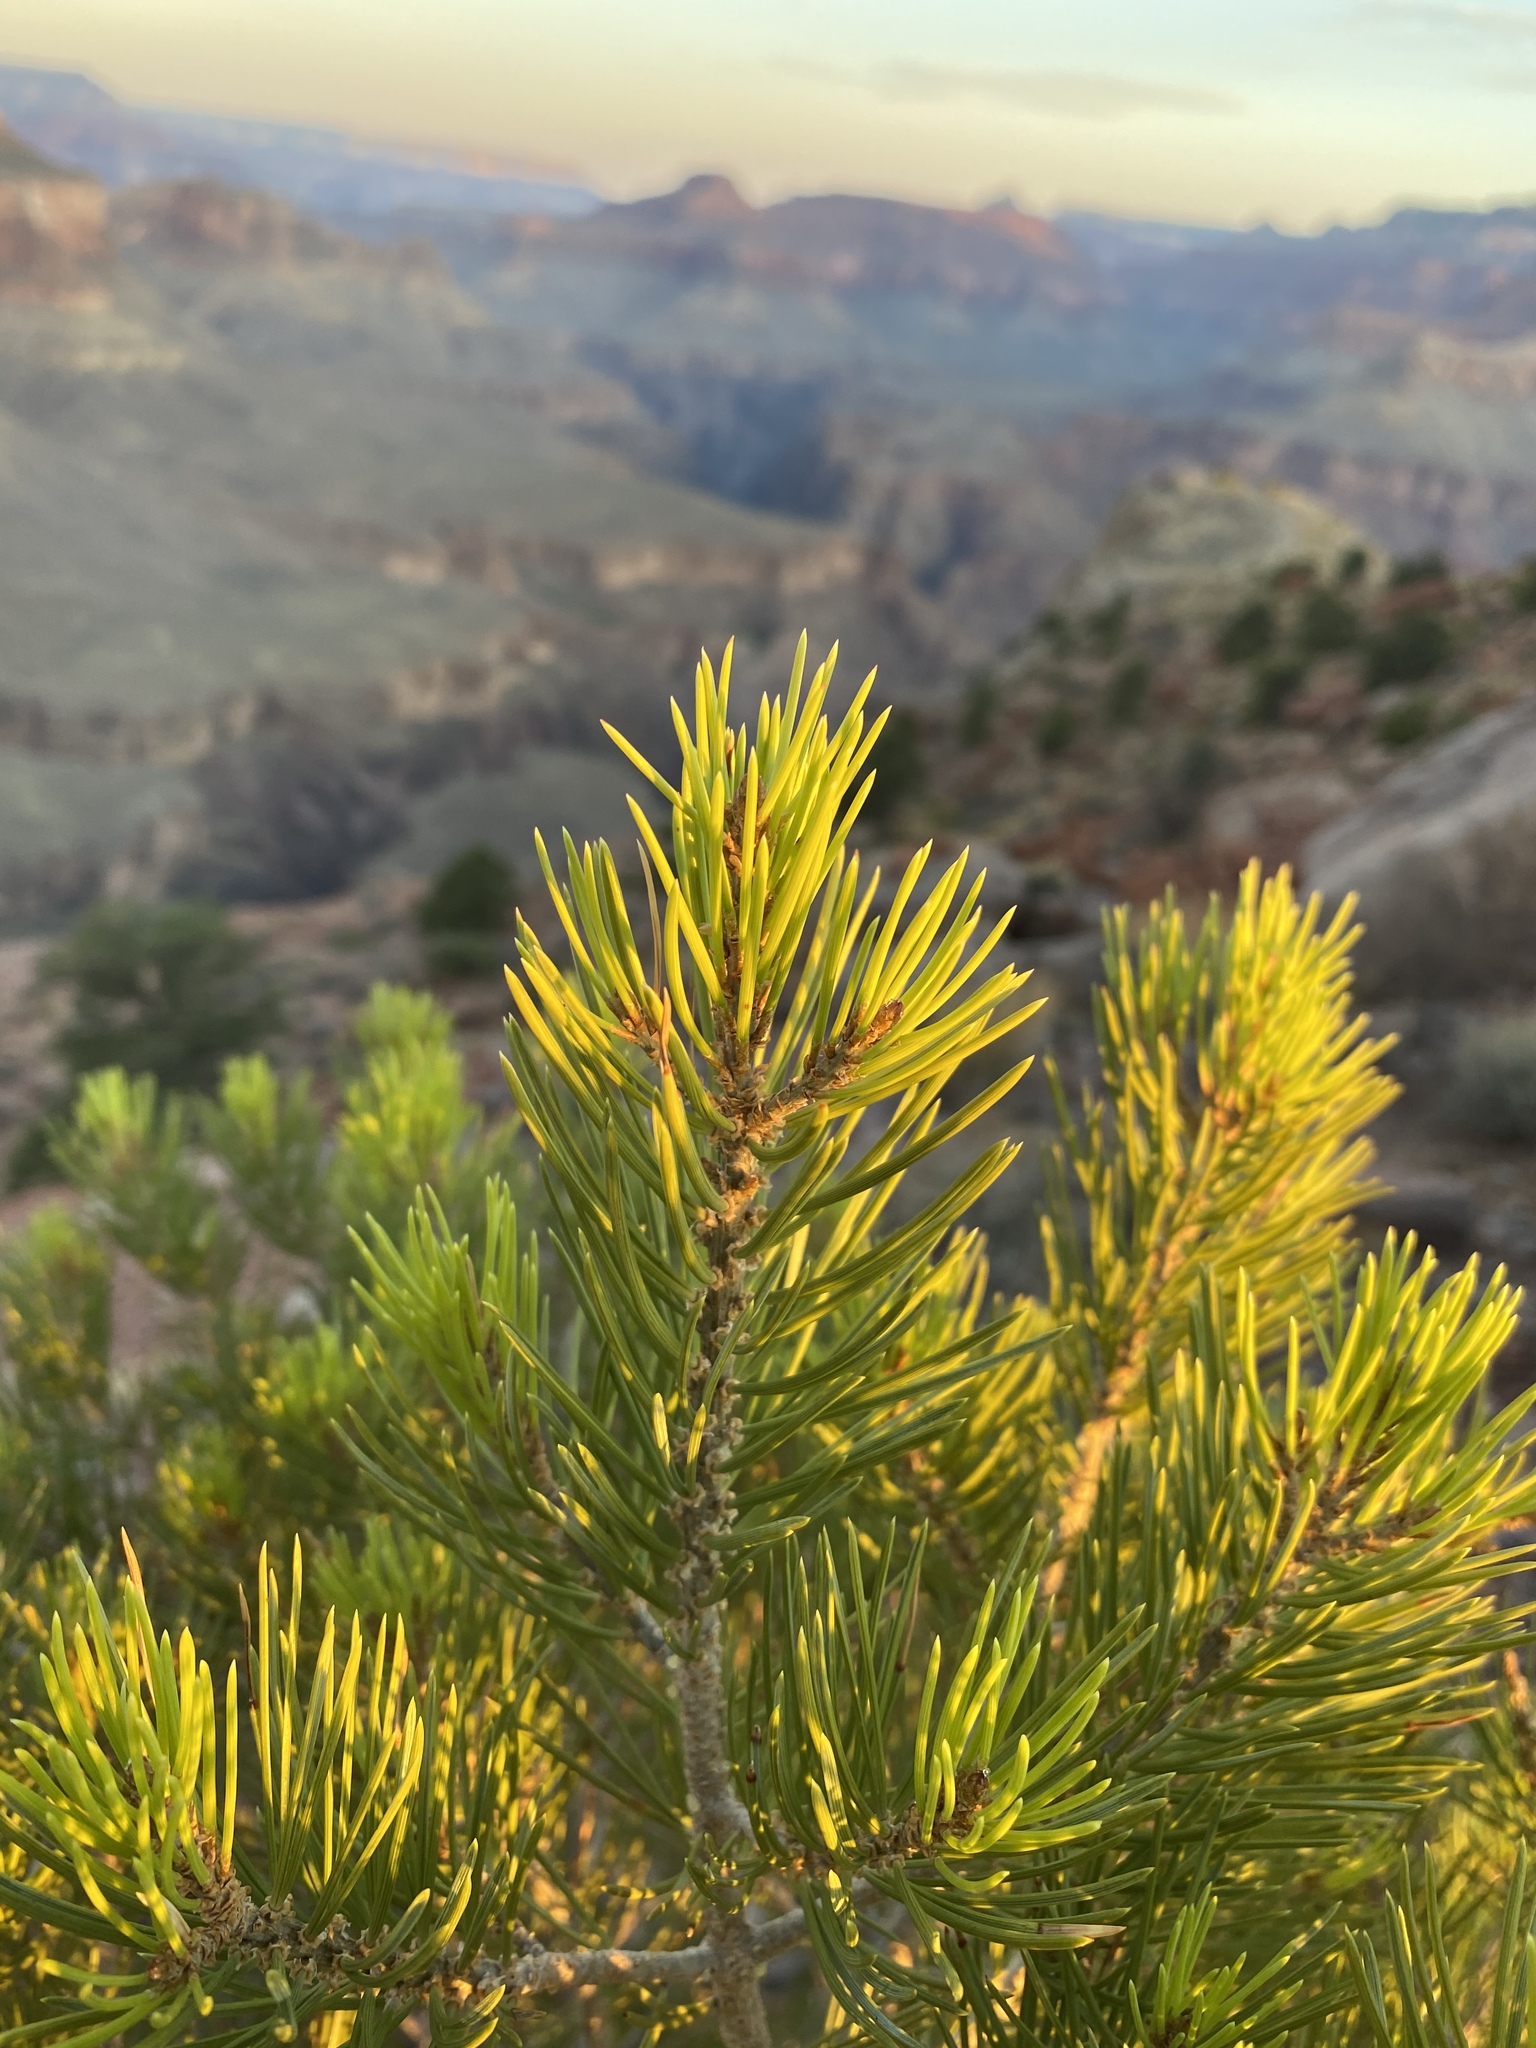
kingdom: Plantae
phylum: Tracheophyta
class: Pinopsida
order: Pinales
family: Pinaceae
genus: Pinus
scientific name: Pinus edulis
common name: Colorado pinyon
